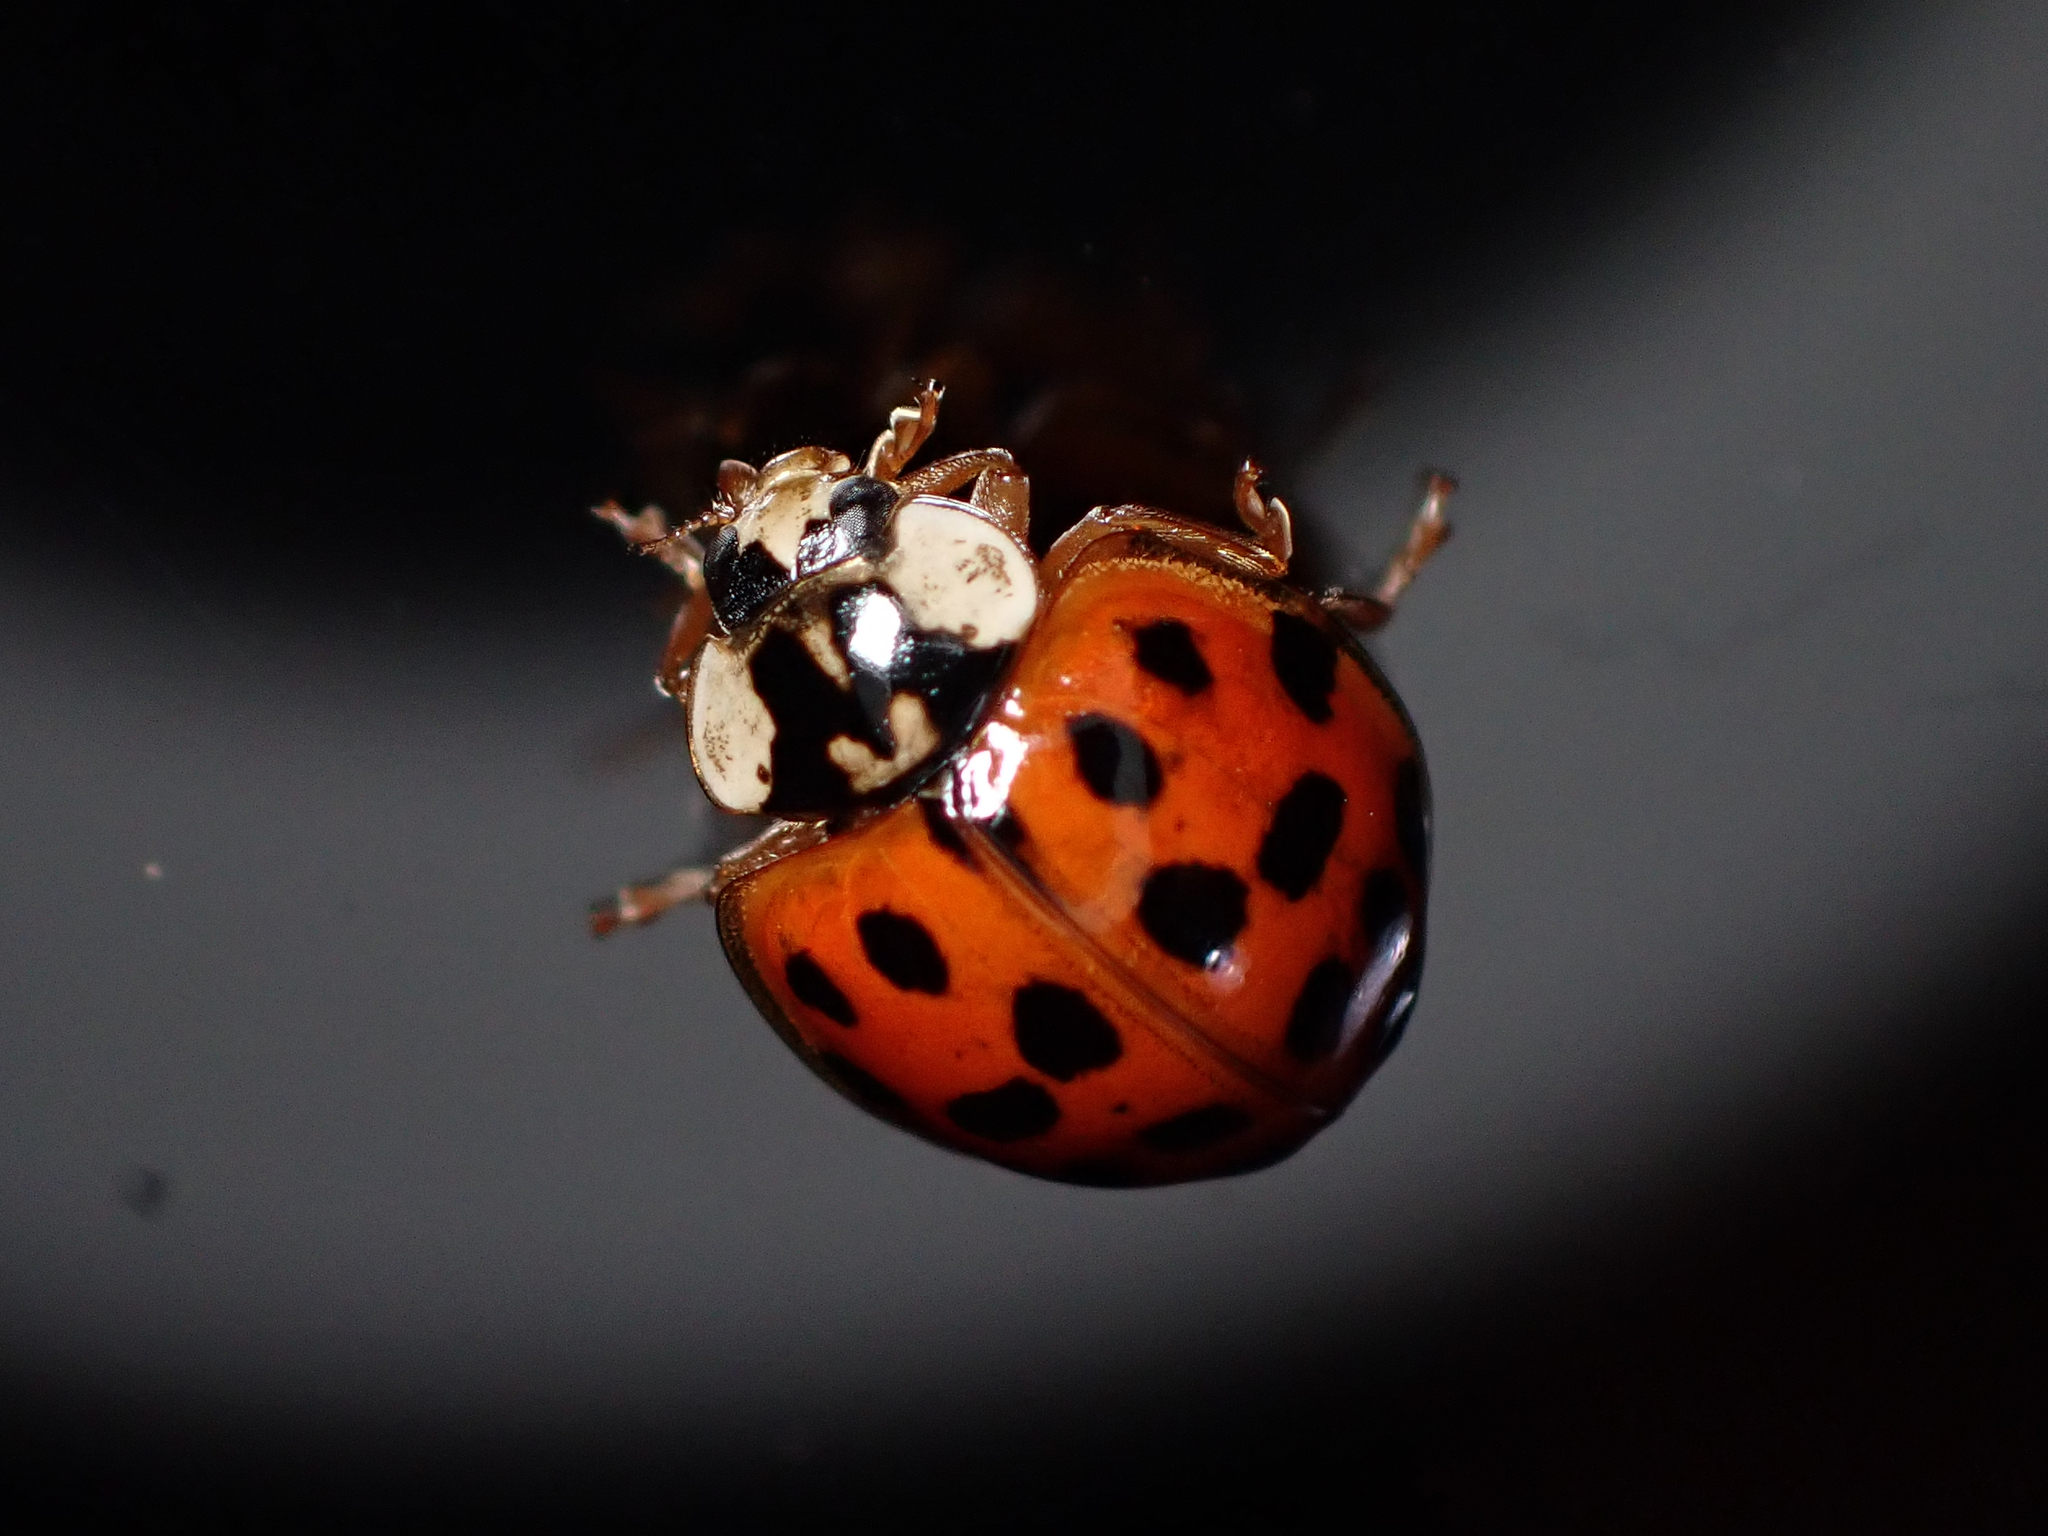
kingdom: Animalia
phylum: Arthropoda
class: Insecta
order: Coleoptera
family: Coccinellidae
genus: Harmonia
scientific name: Harmonia axyridis
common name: Harlequin ladybird
